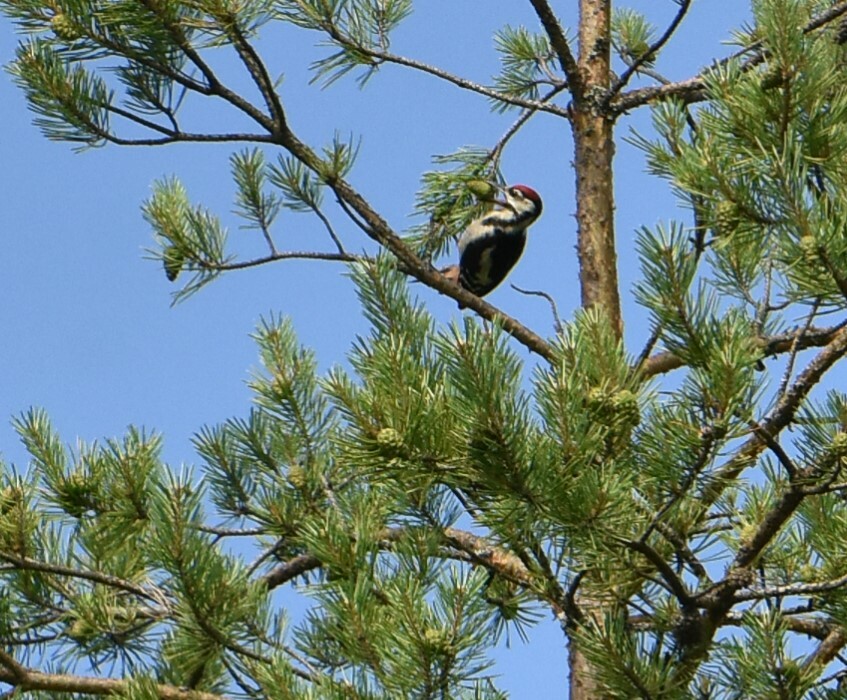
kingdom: Animalia
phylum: Chordata
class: Aves
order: Piciformes
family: Picidae
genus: Dendrocopos
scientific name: Dendrocopos major
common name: Great spotted woodpecker
